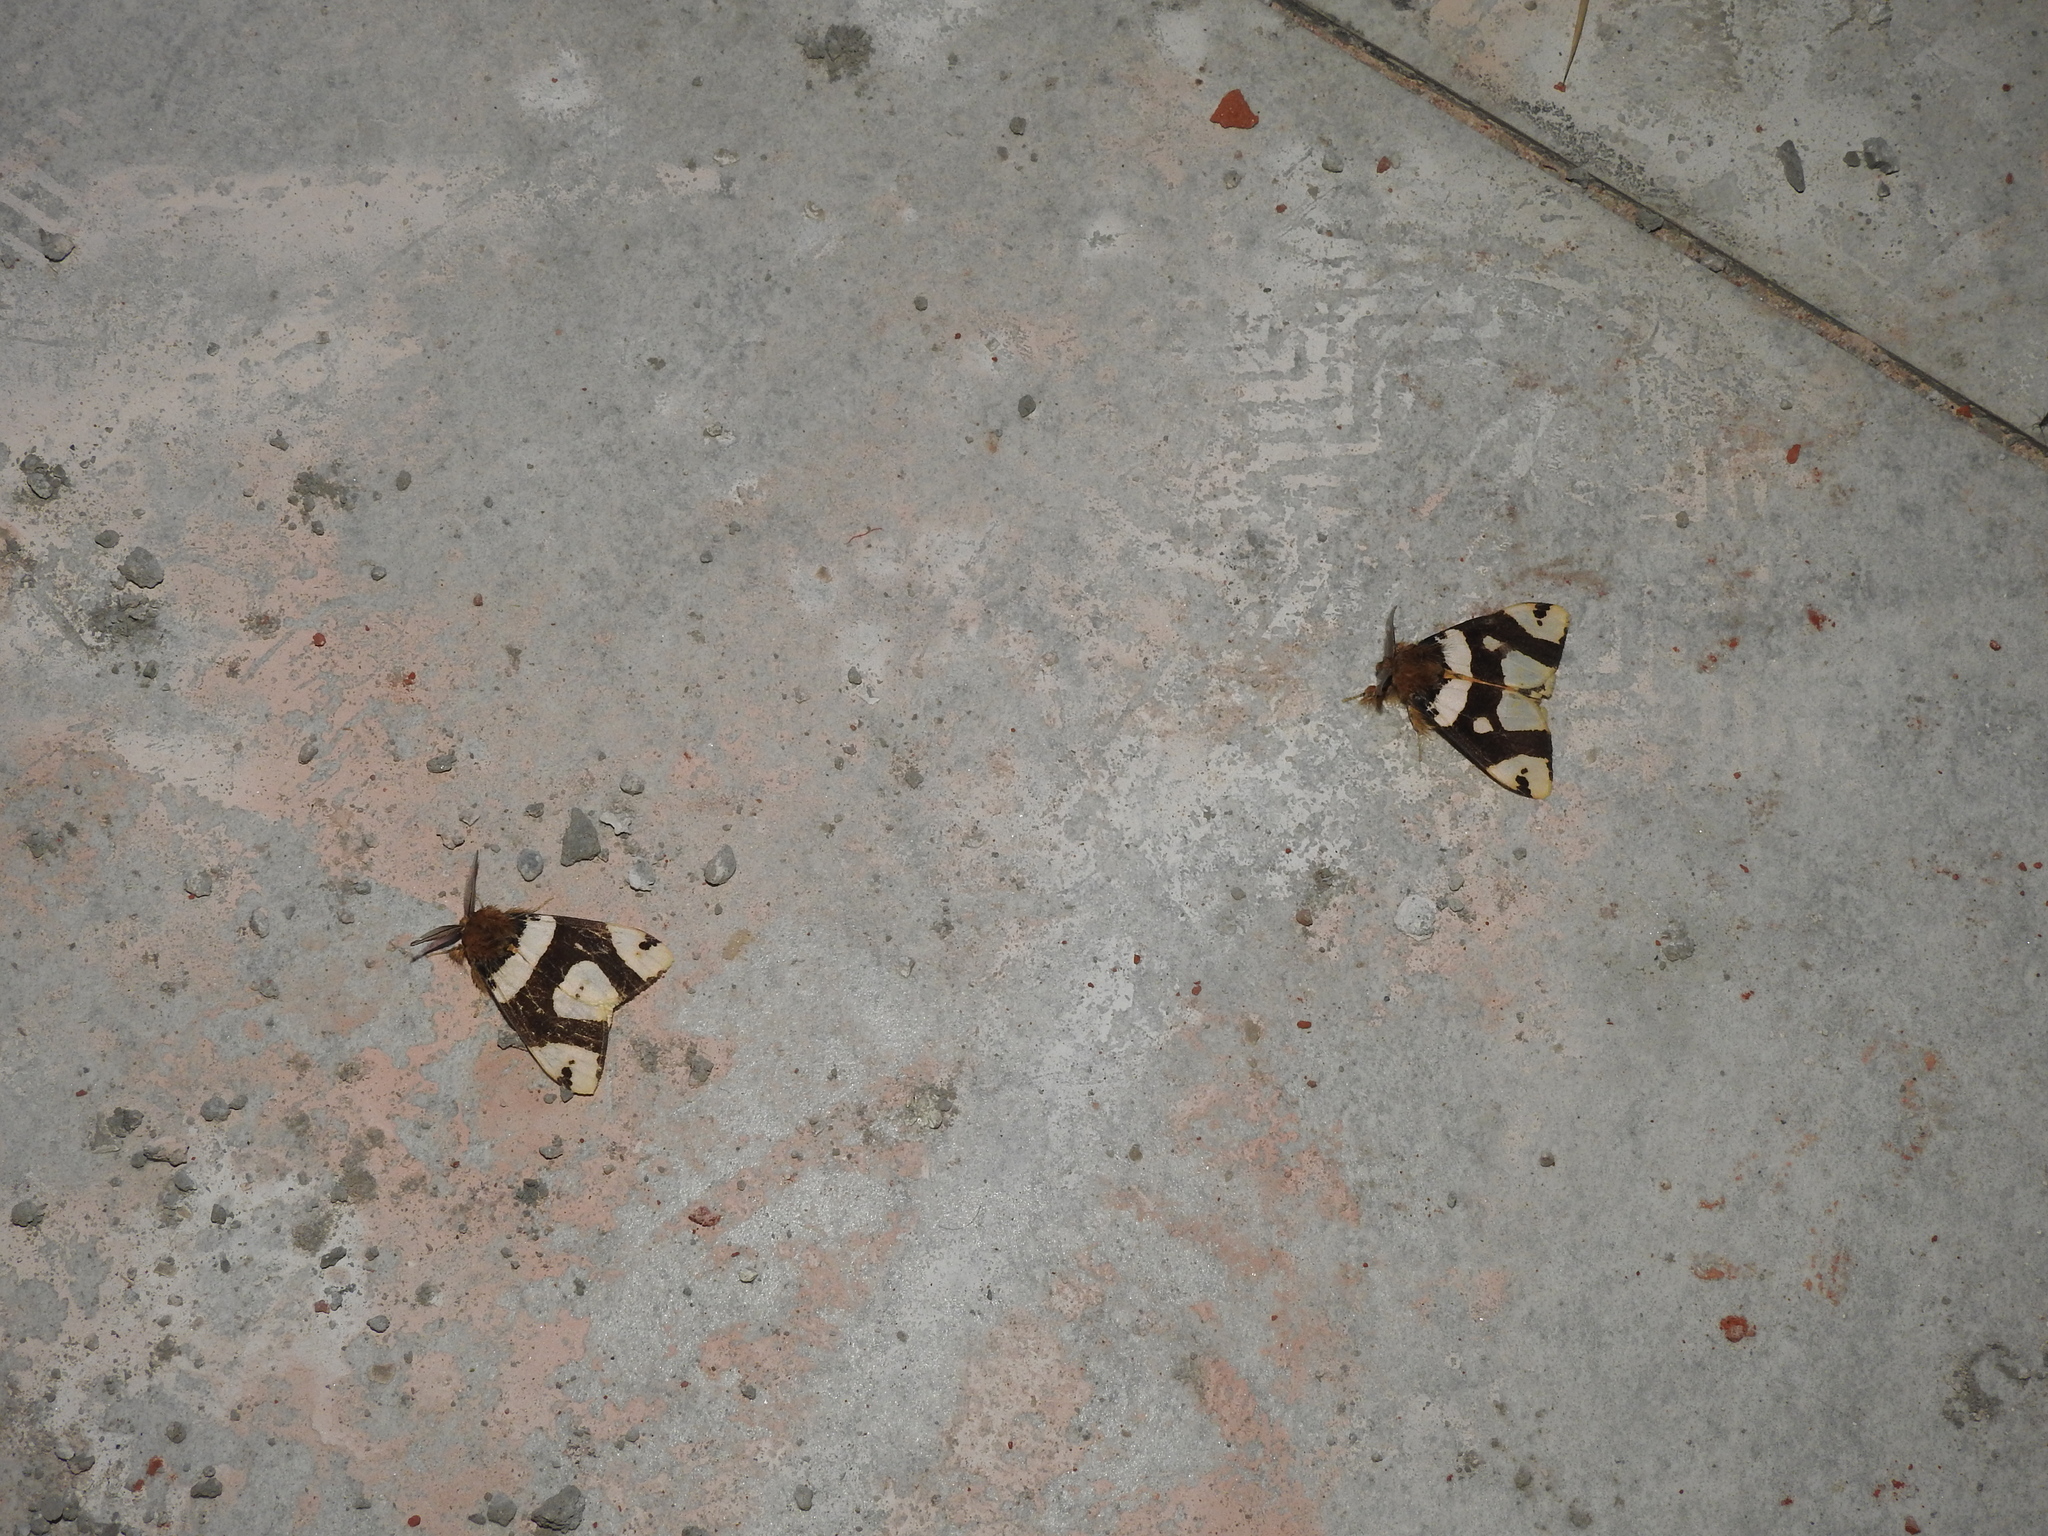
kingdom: Animalia
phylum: Arthropoda
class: Insecta
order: Lepidoptera
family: Erebidae
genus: Pida
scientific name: Pida
